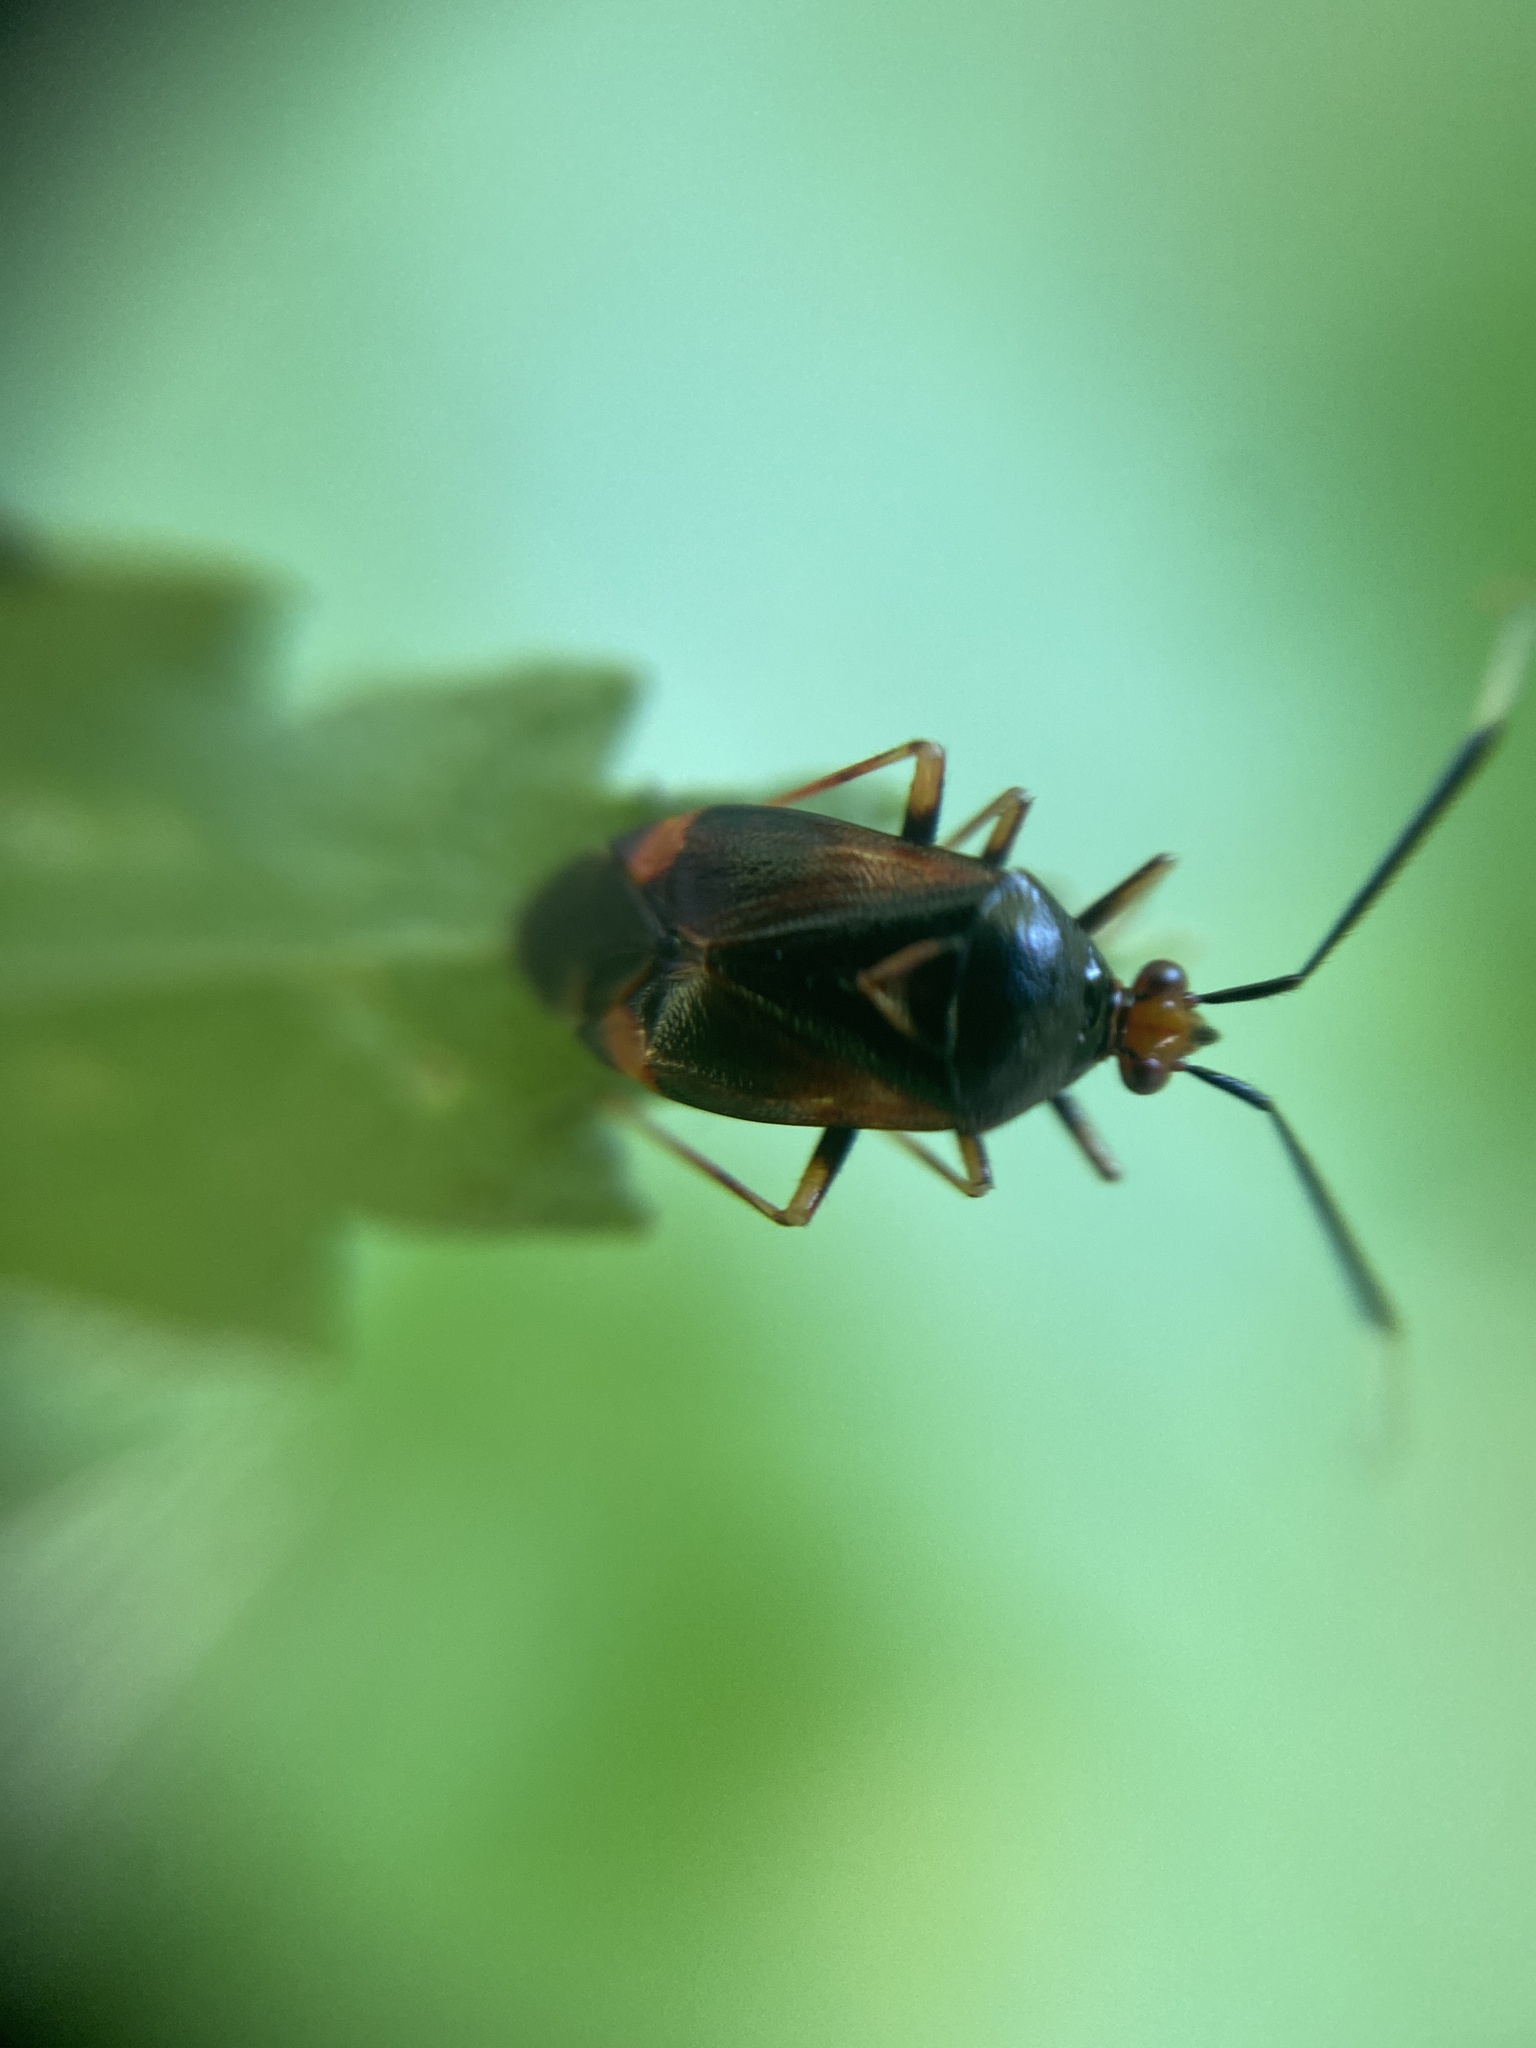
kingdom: Animalia
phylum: Arthropoda
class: Insecta
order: Hemiptera
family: Miridae
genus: Deraeocoris
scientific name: Deraeocoris ruber
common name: Plant bug
